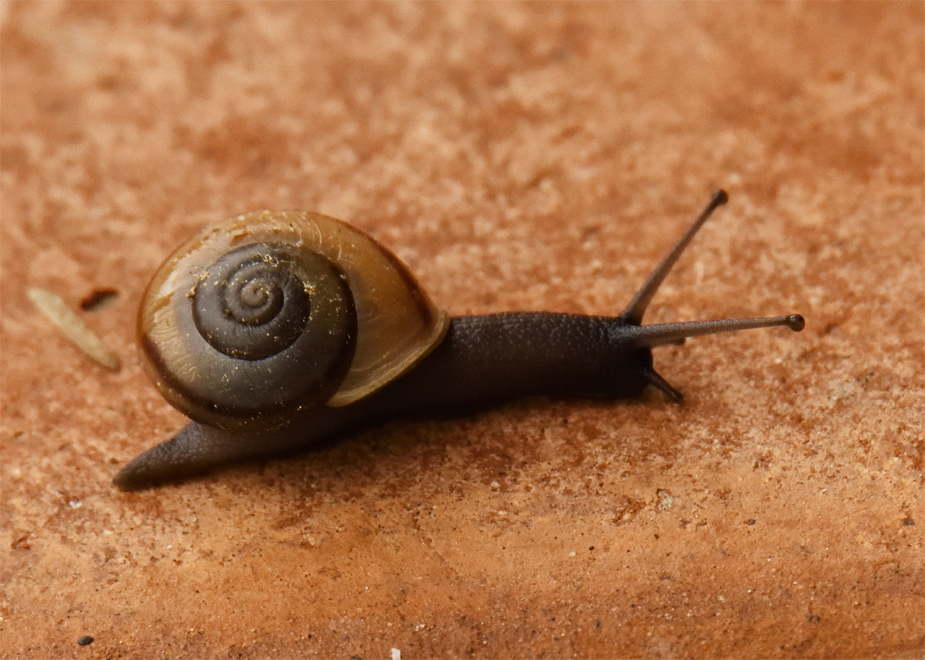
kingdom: Animalia
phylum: Mollusca
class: Gastropoda
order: Stylommatophora
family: Xanthonychidae
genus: Cahuillus
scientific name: Cahuillus indioensis
